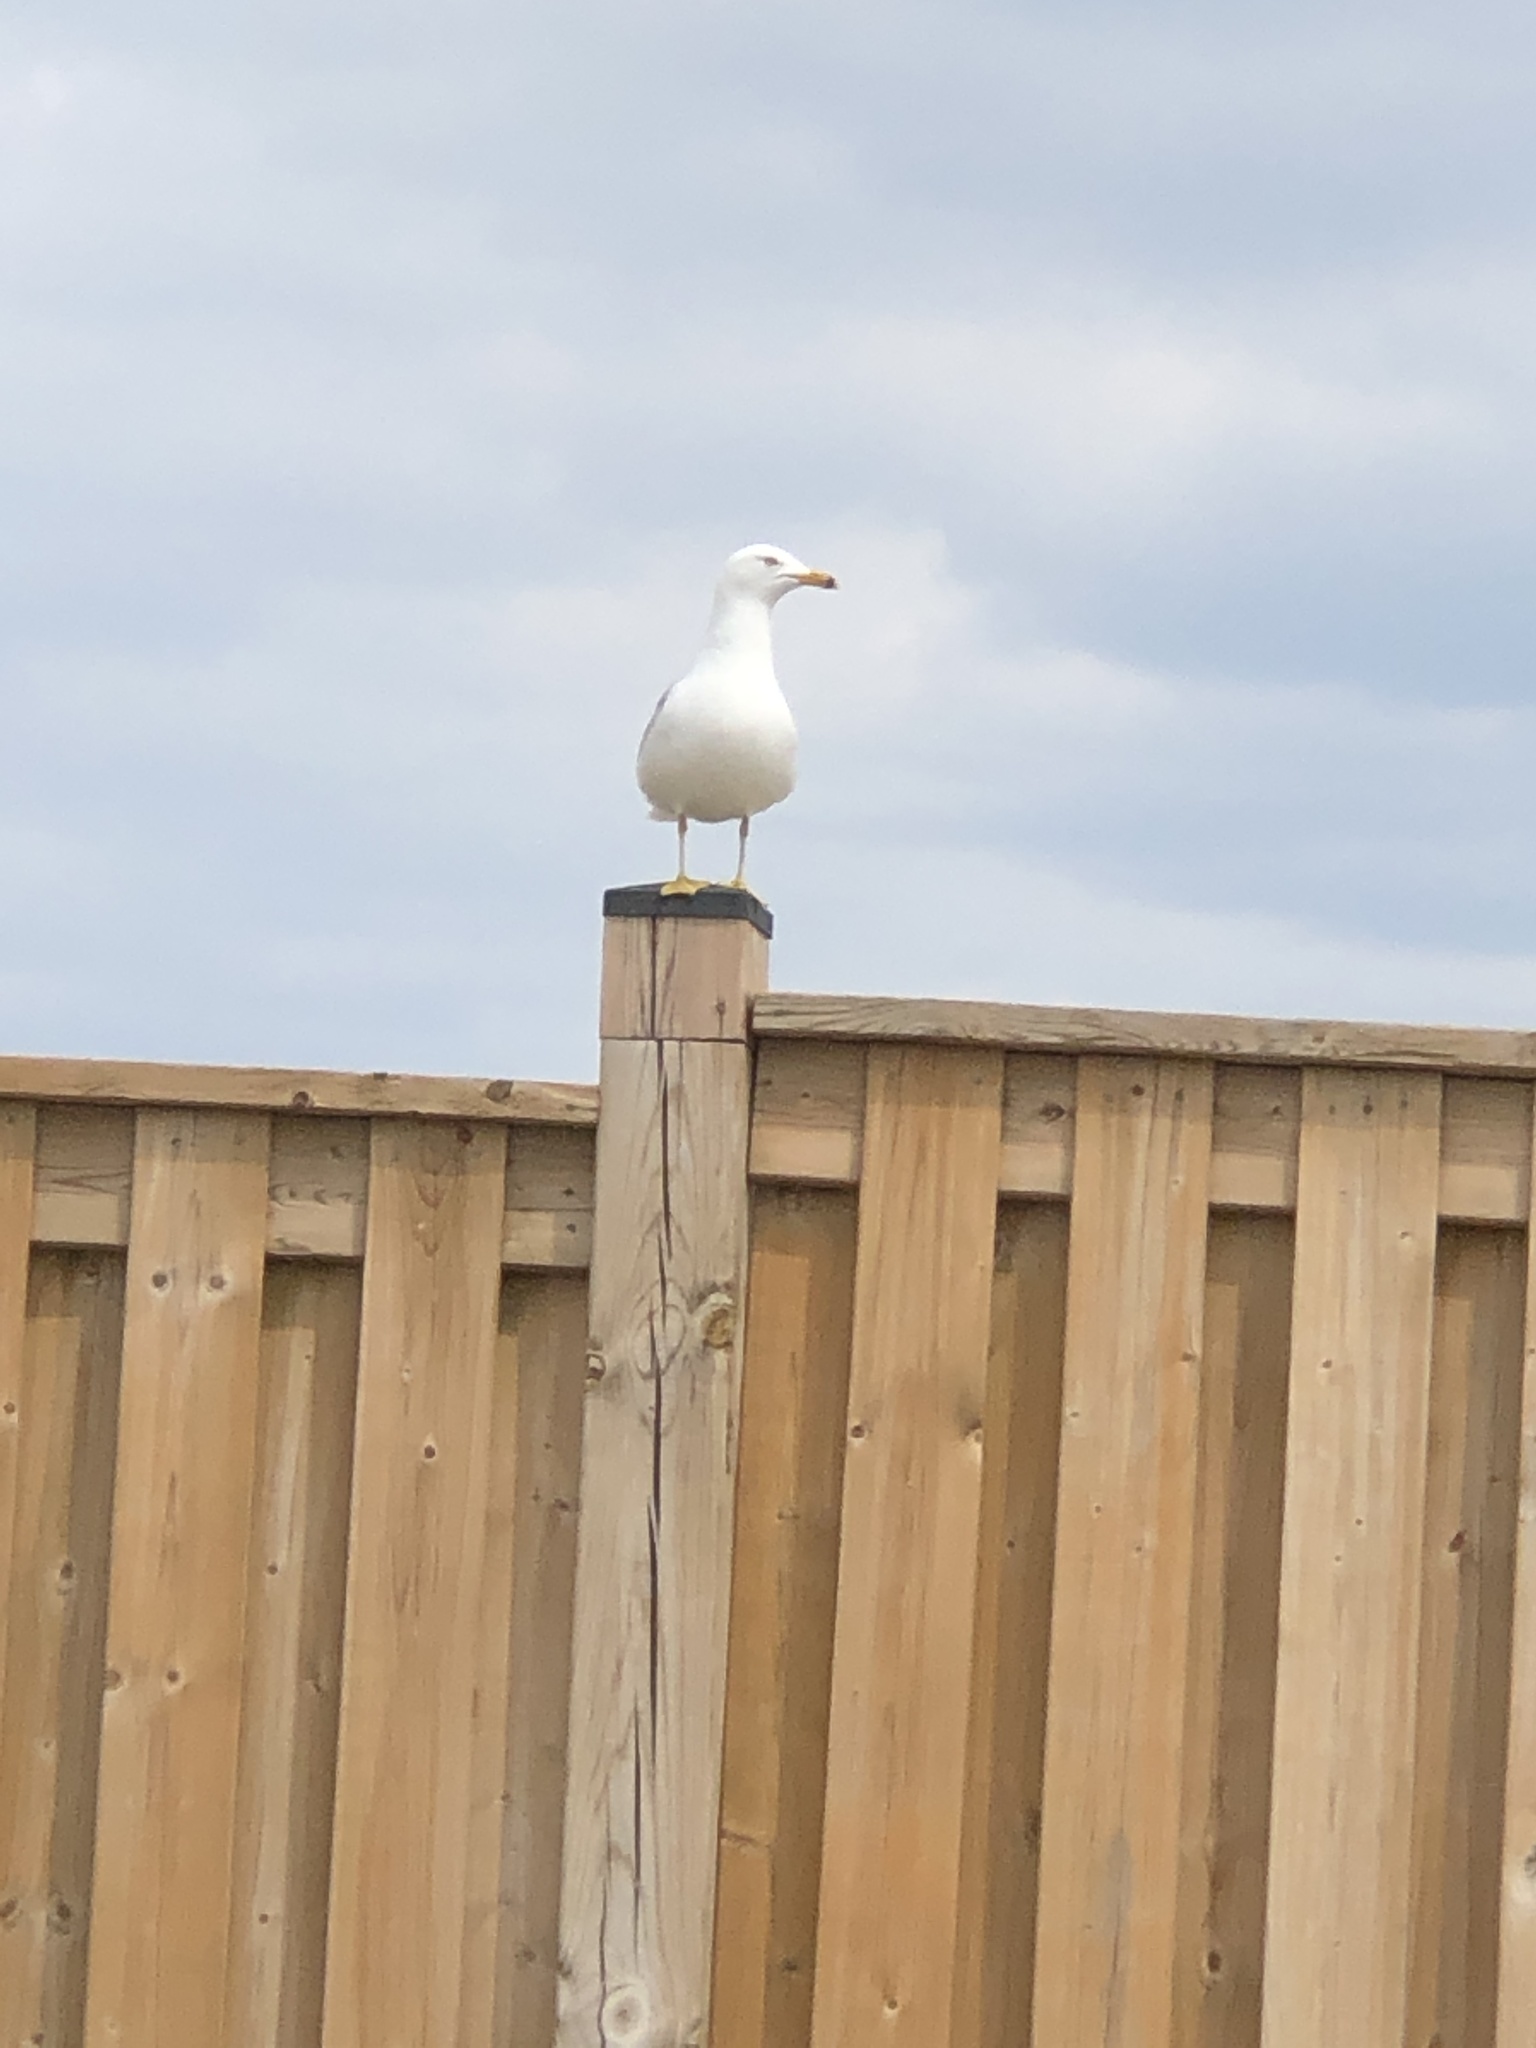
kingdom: Animalia
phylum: Chordata
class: Aves
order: Charadriiformes
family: Laridae
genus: Larus
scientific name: Larus delawarensis
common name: Ring-billed gull
